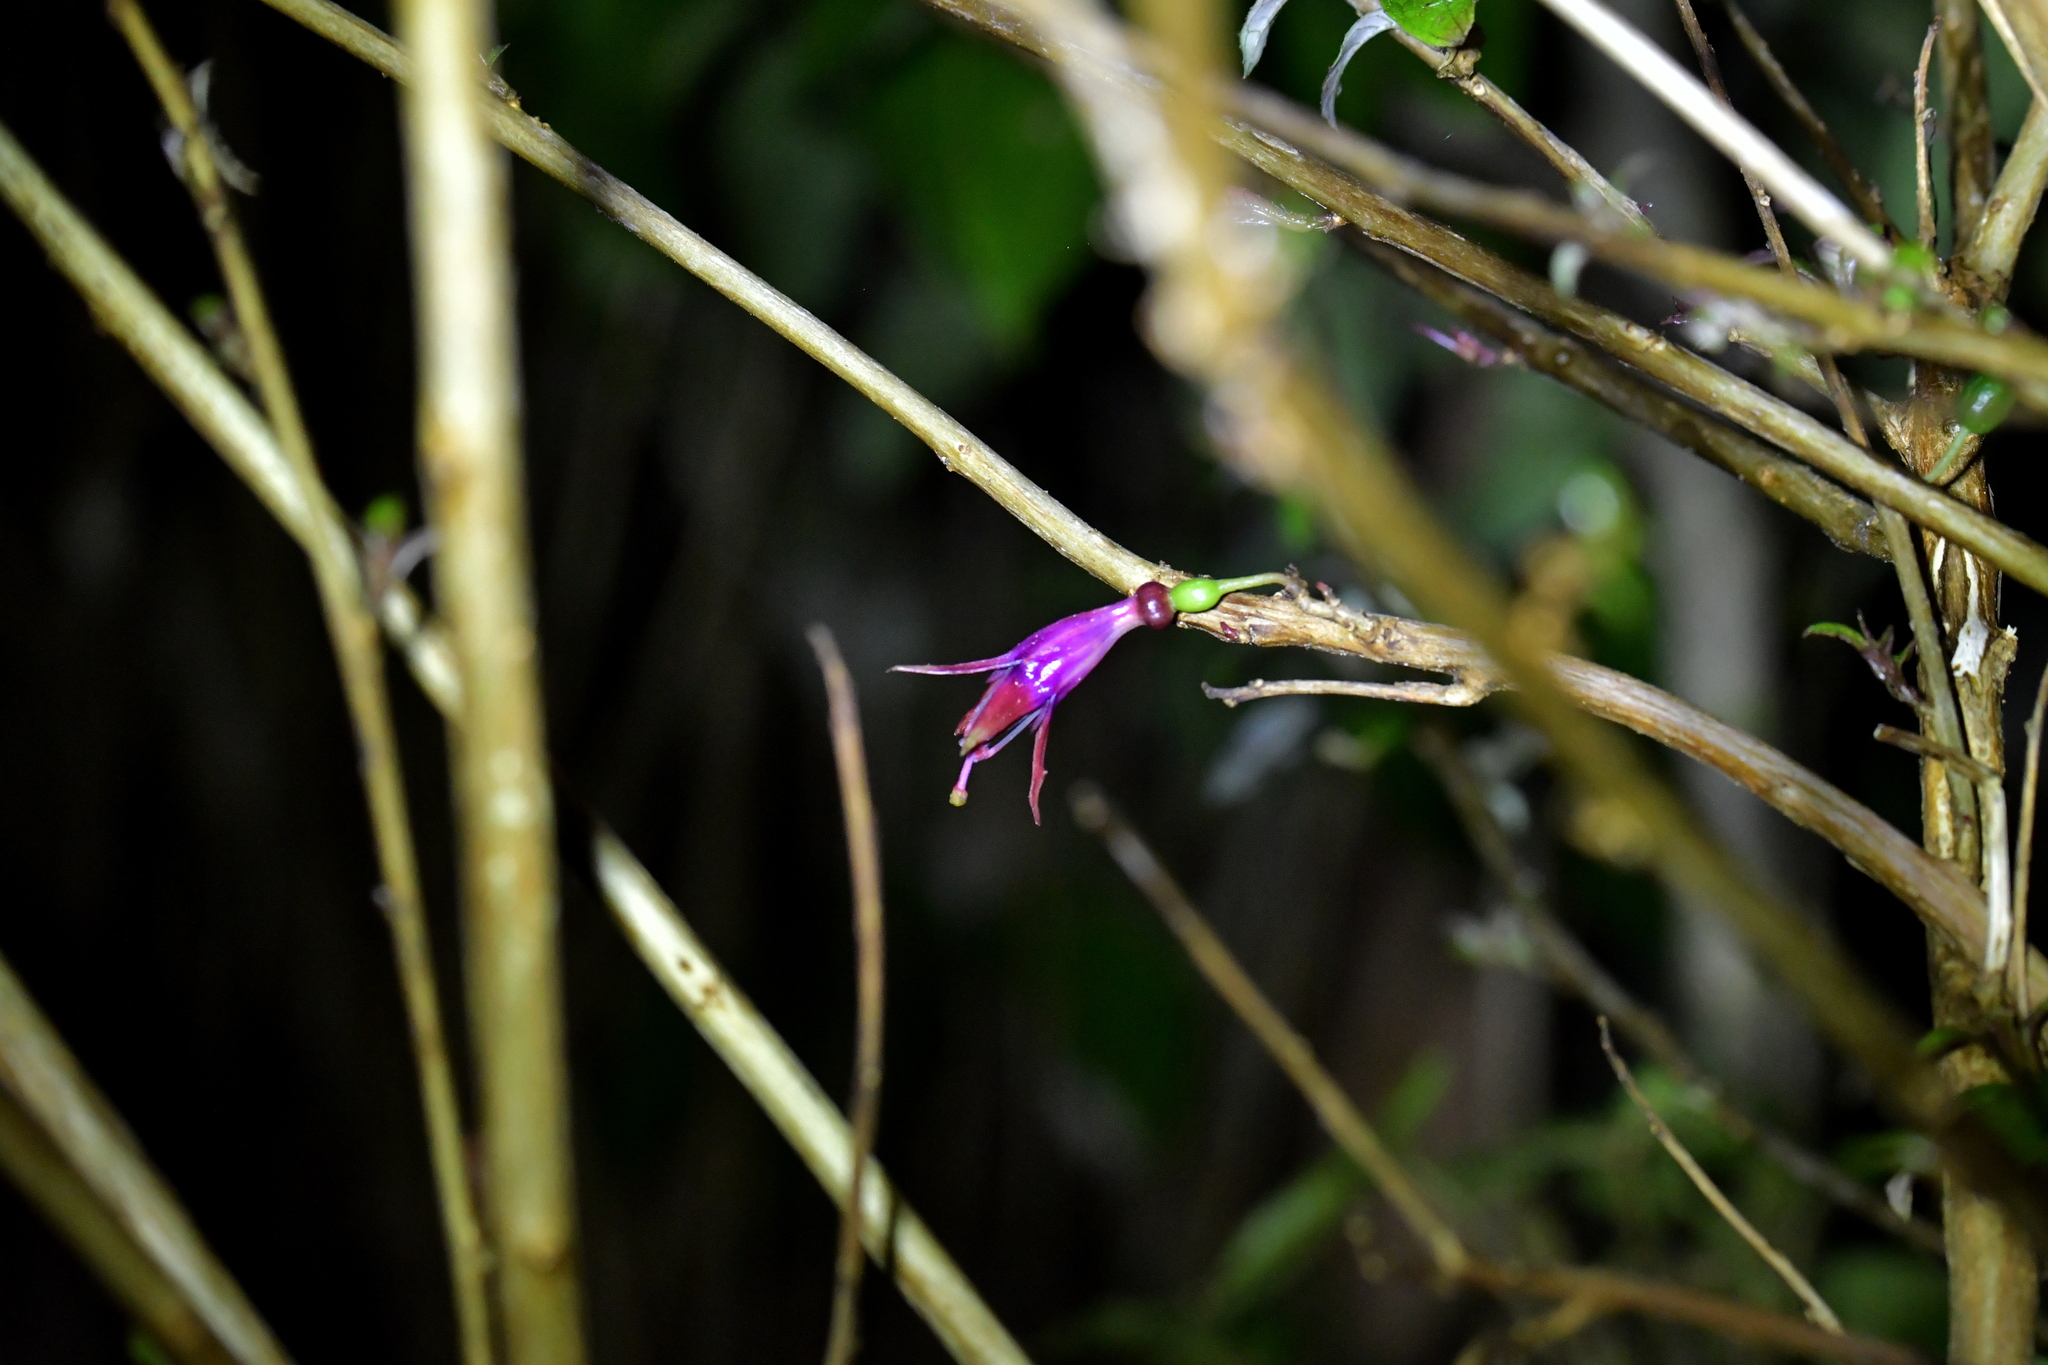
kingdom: Plantae
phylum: Tracheophyta
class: Magnoliopsida
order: Myrtales
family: Onagraceae
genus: Fuchsia
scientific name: Fuchsia excorticata
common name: Tree fuchsia
